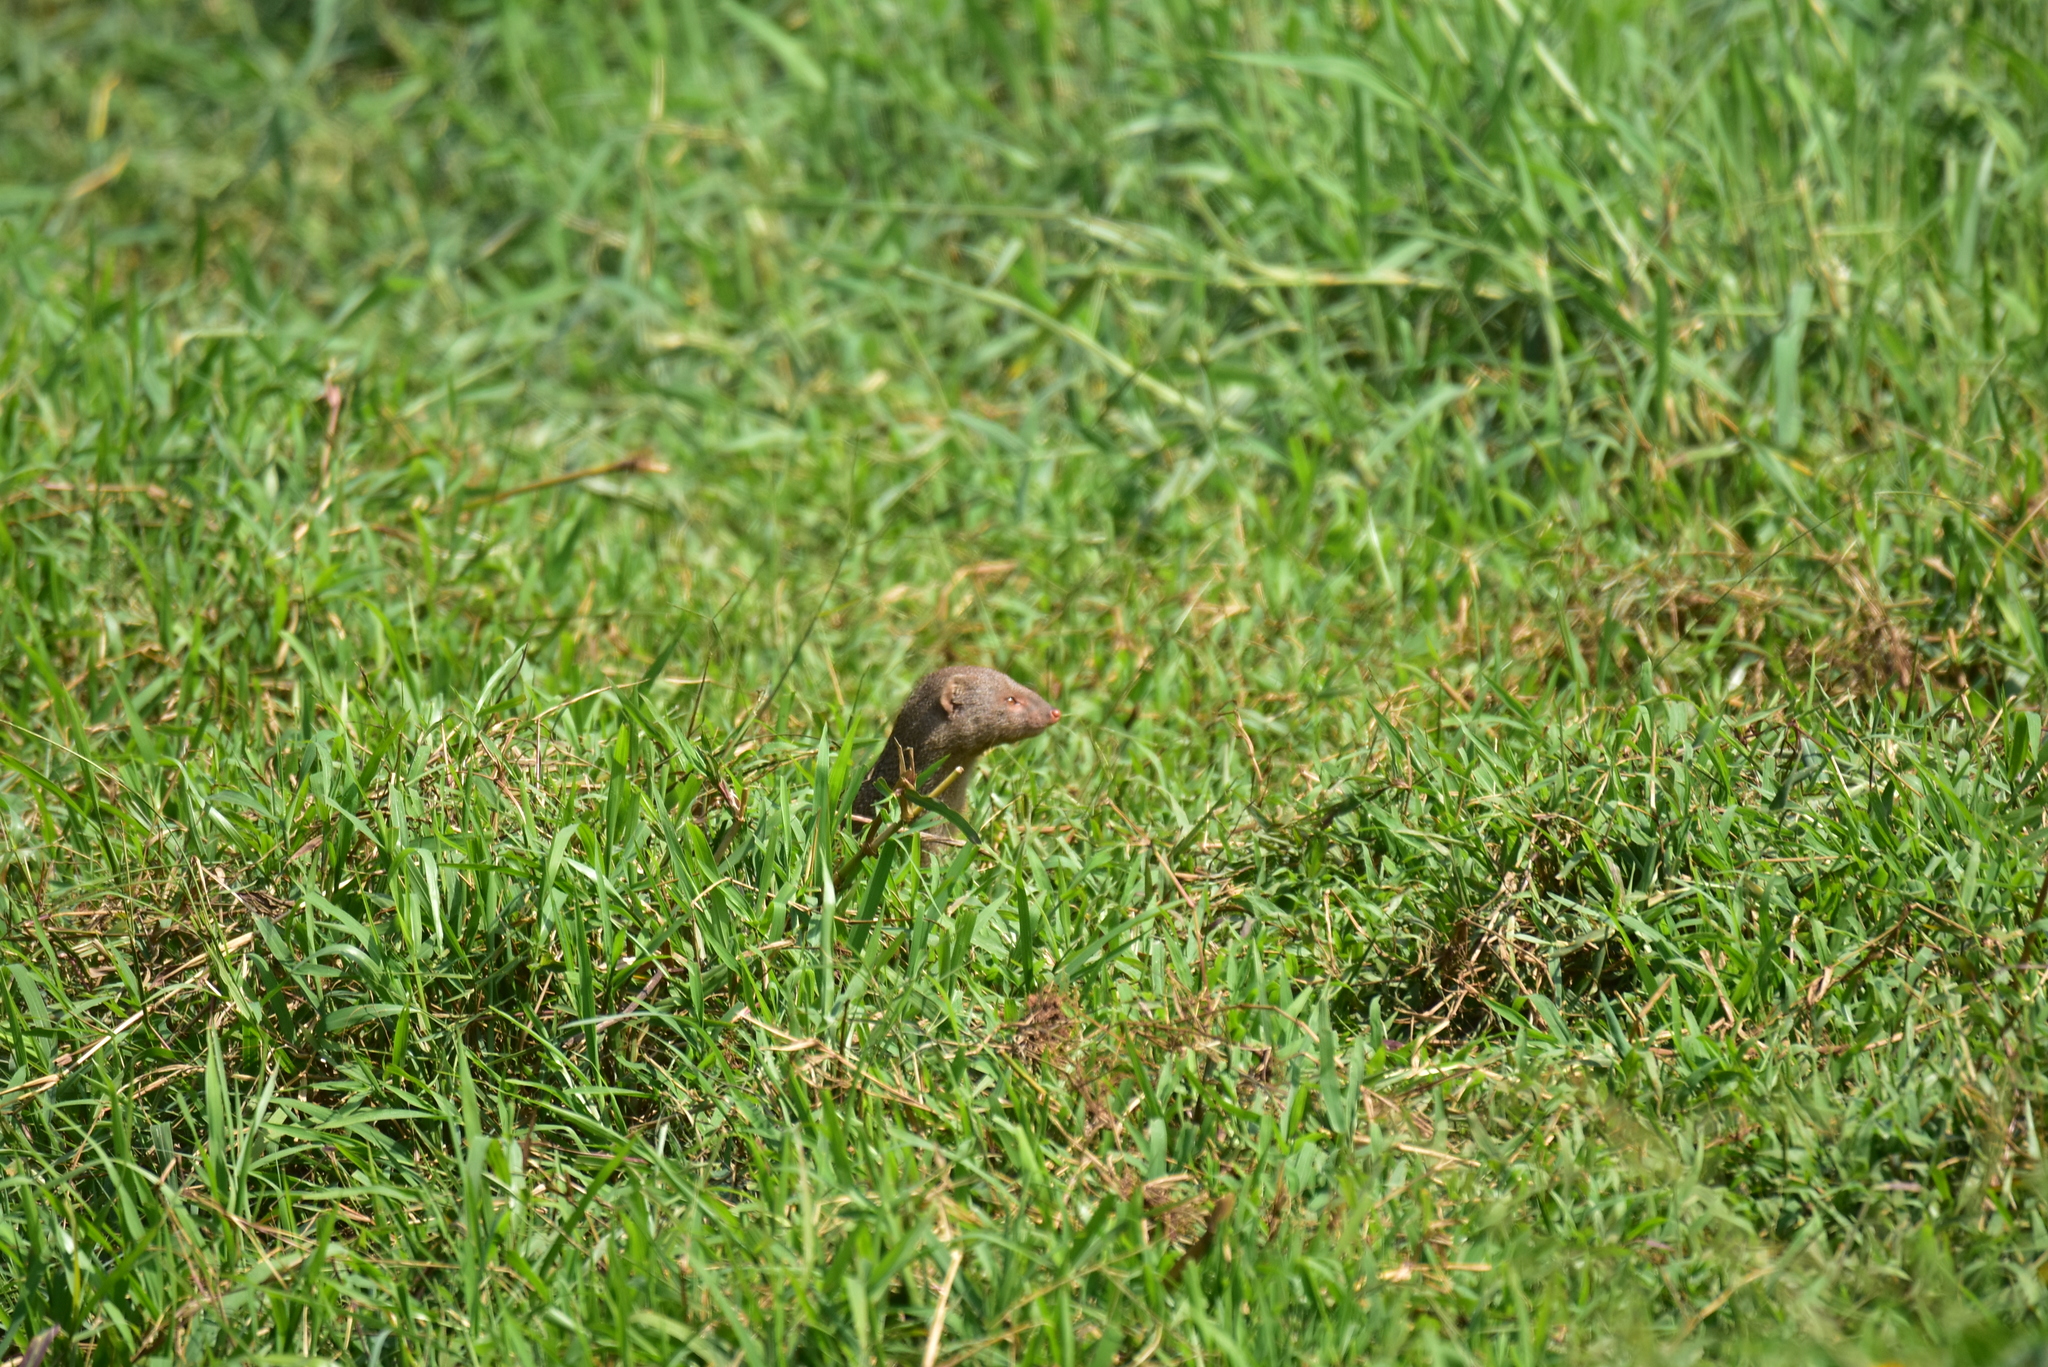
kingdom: Animalia
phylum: Chordata
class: Mammalia
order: Carnivora
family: Herpestidae
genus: Herpestes
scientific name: Herpestes edwardsi
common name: Indian gray mongoose
